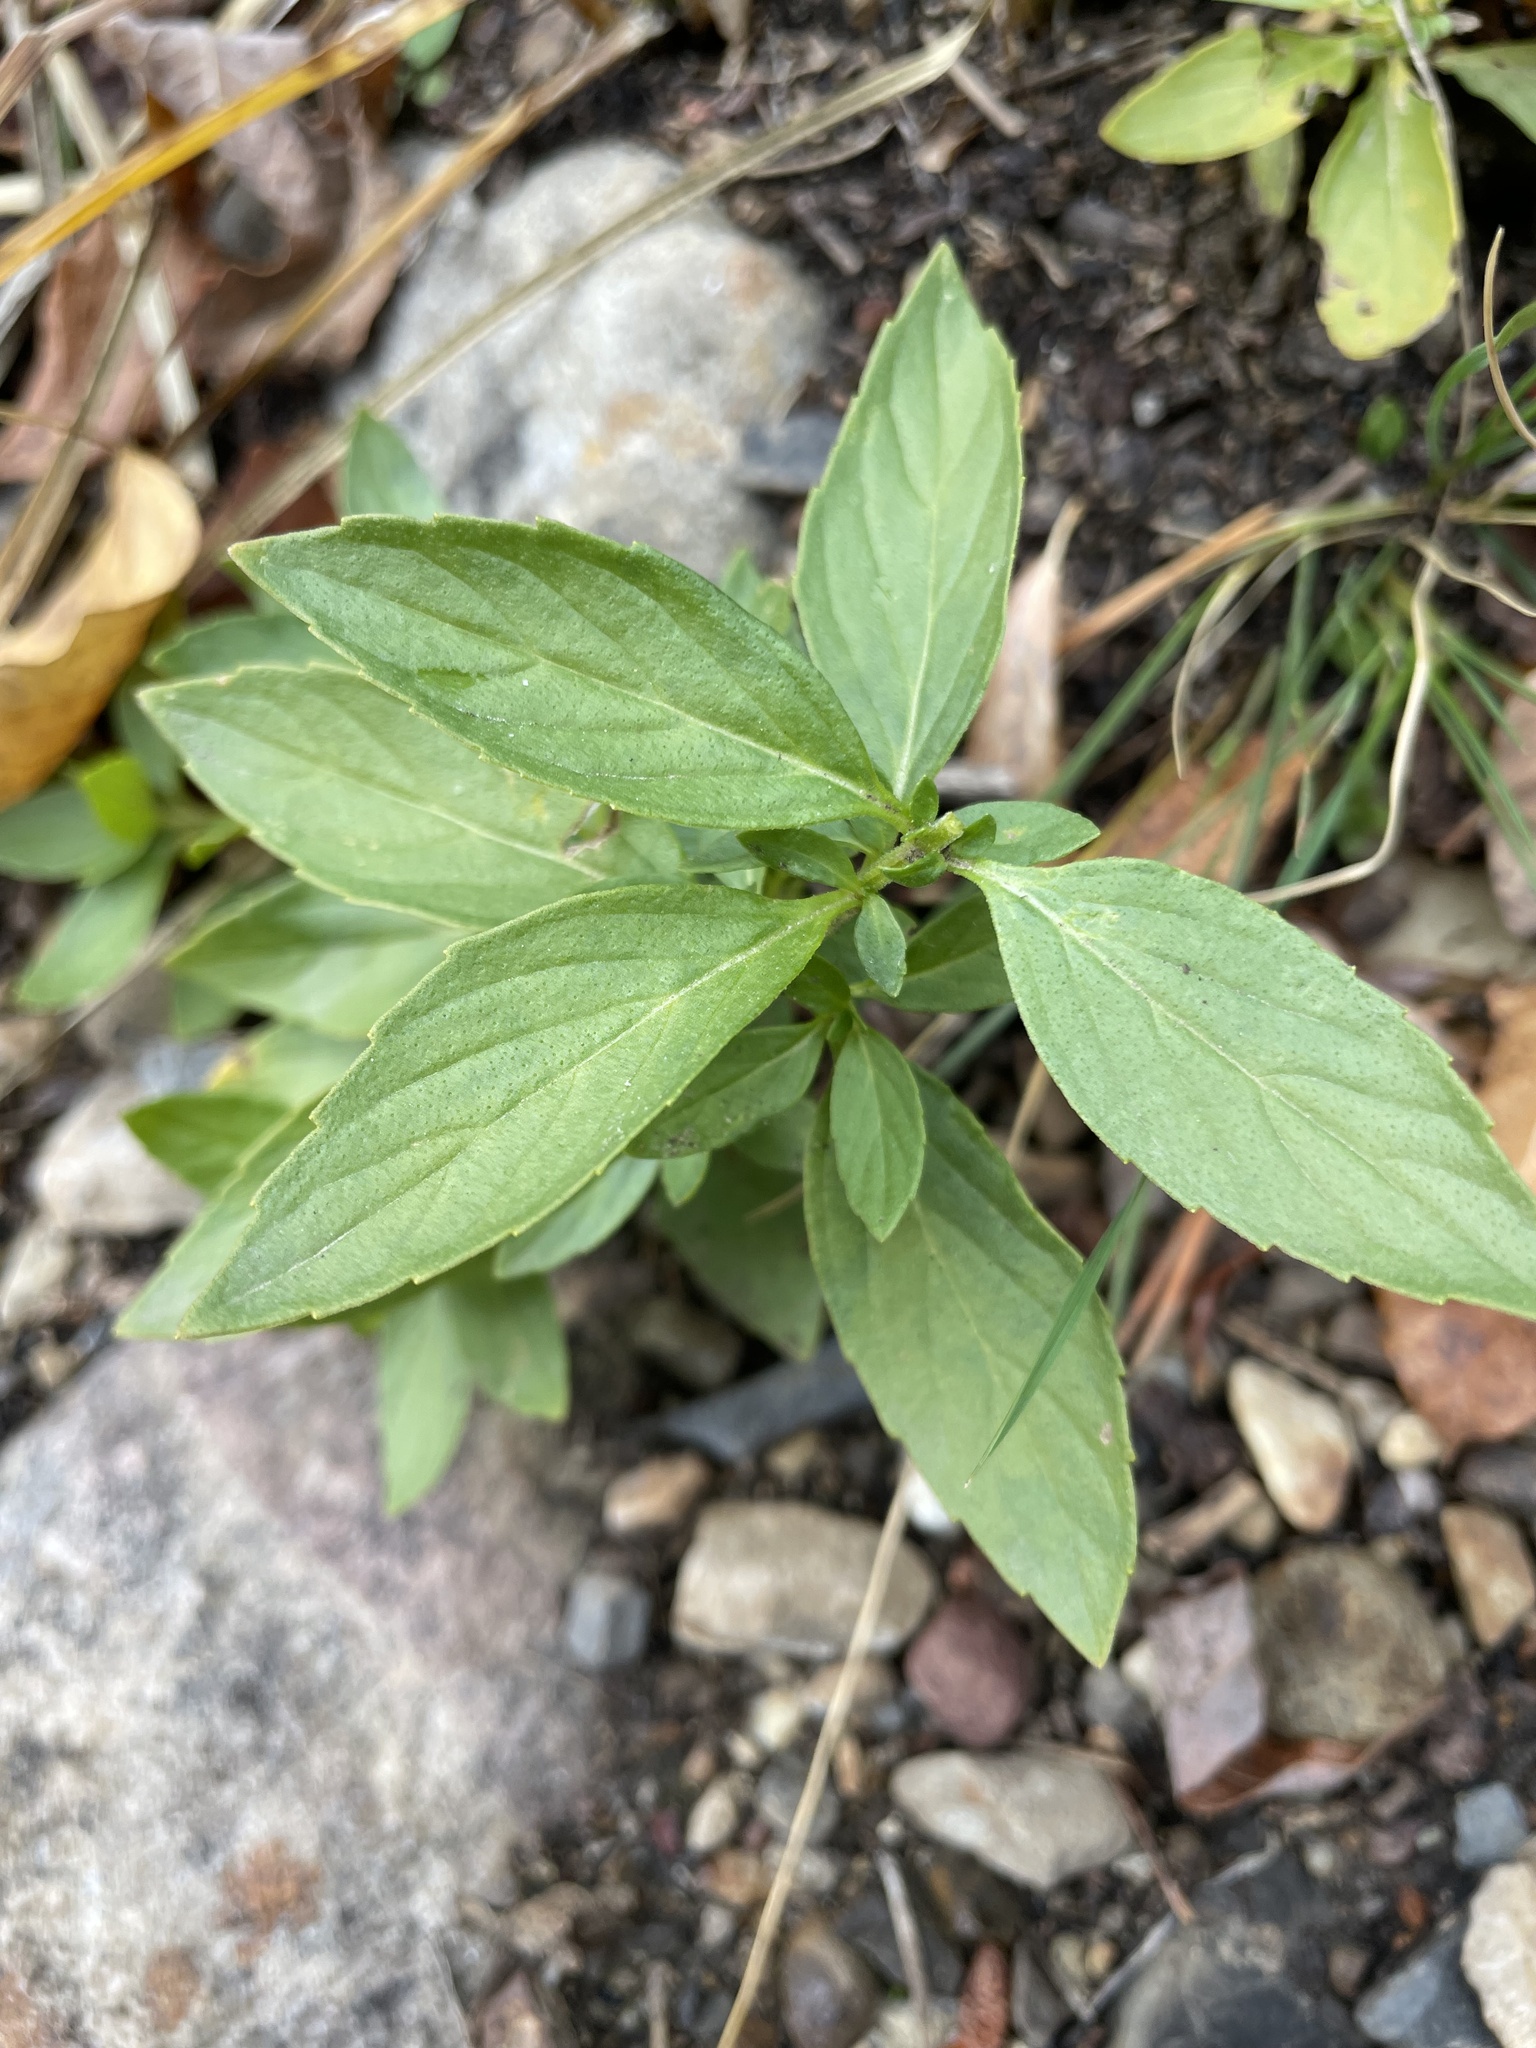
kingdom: Plantae
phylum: Tracheophyta
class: Magnoliopsida
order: Lamiales
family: Lamiaceae
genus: Mentha
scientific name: Mentha canadensis
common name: American corn mint
